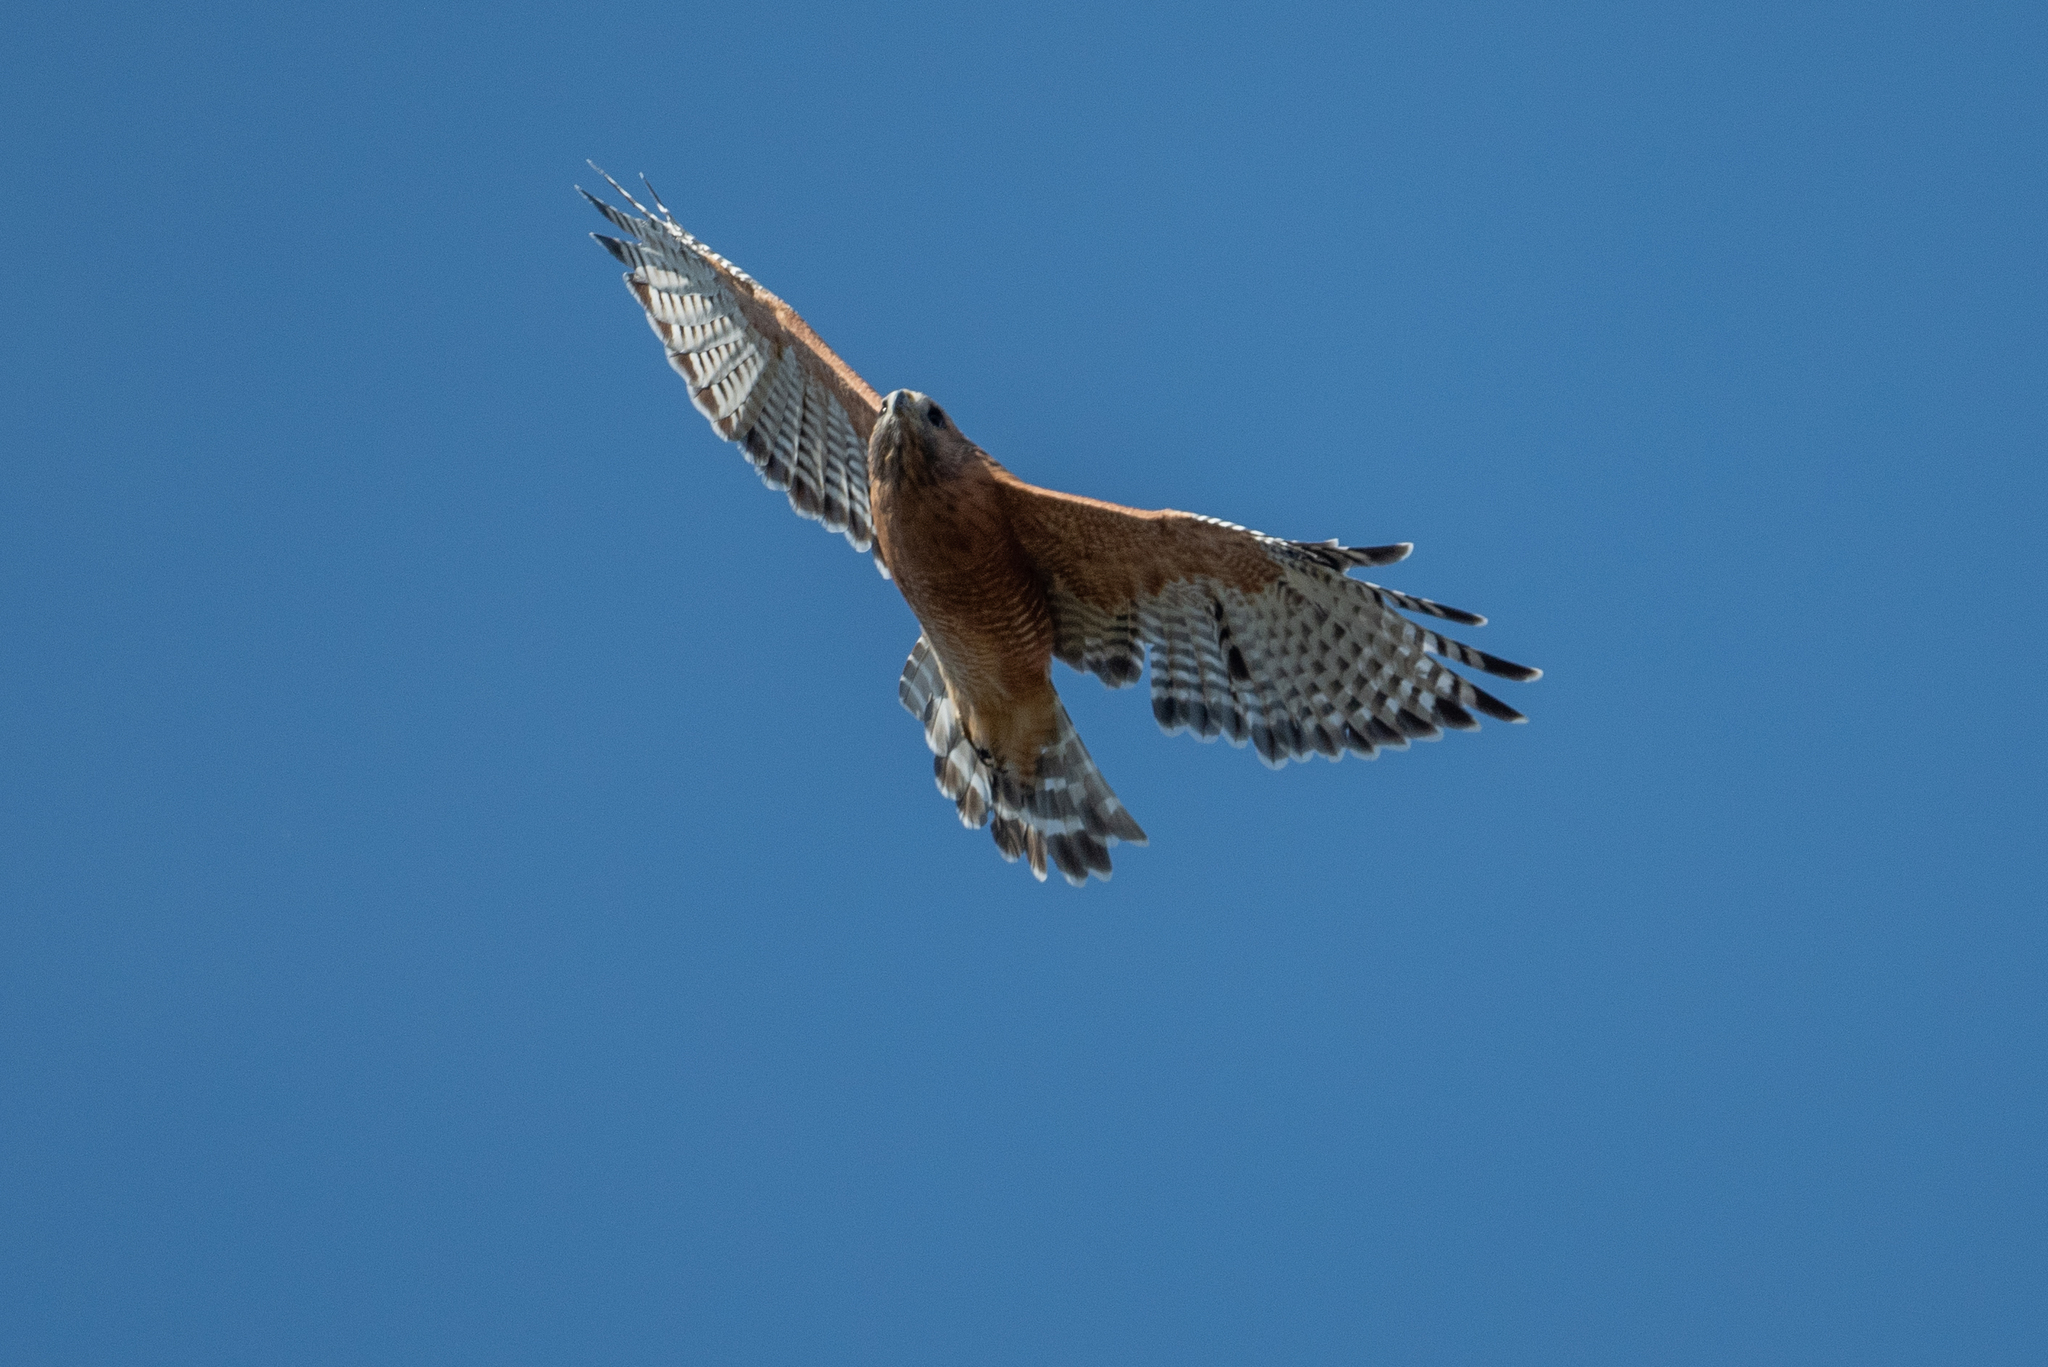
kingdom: Animalia
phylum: Chordata
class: Aves
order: Accipitriformes
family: Accipitridae
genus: Buteo
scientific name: Buteo lineatus
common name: Red-shouldered hawk
